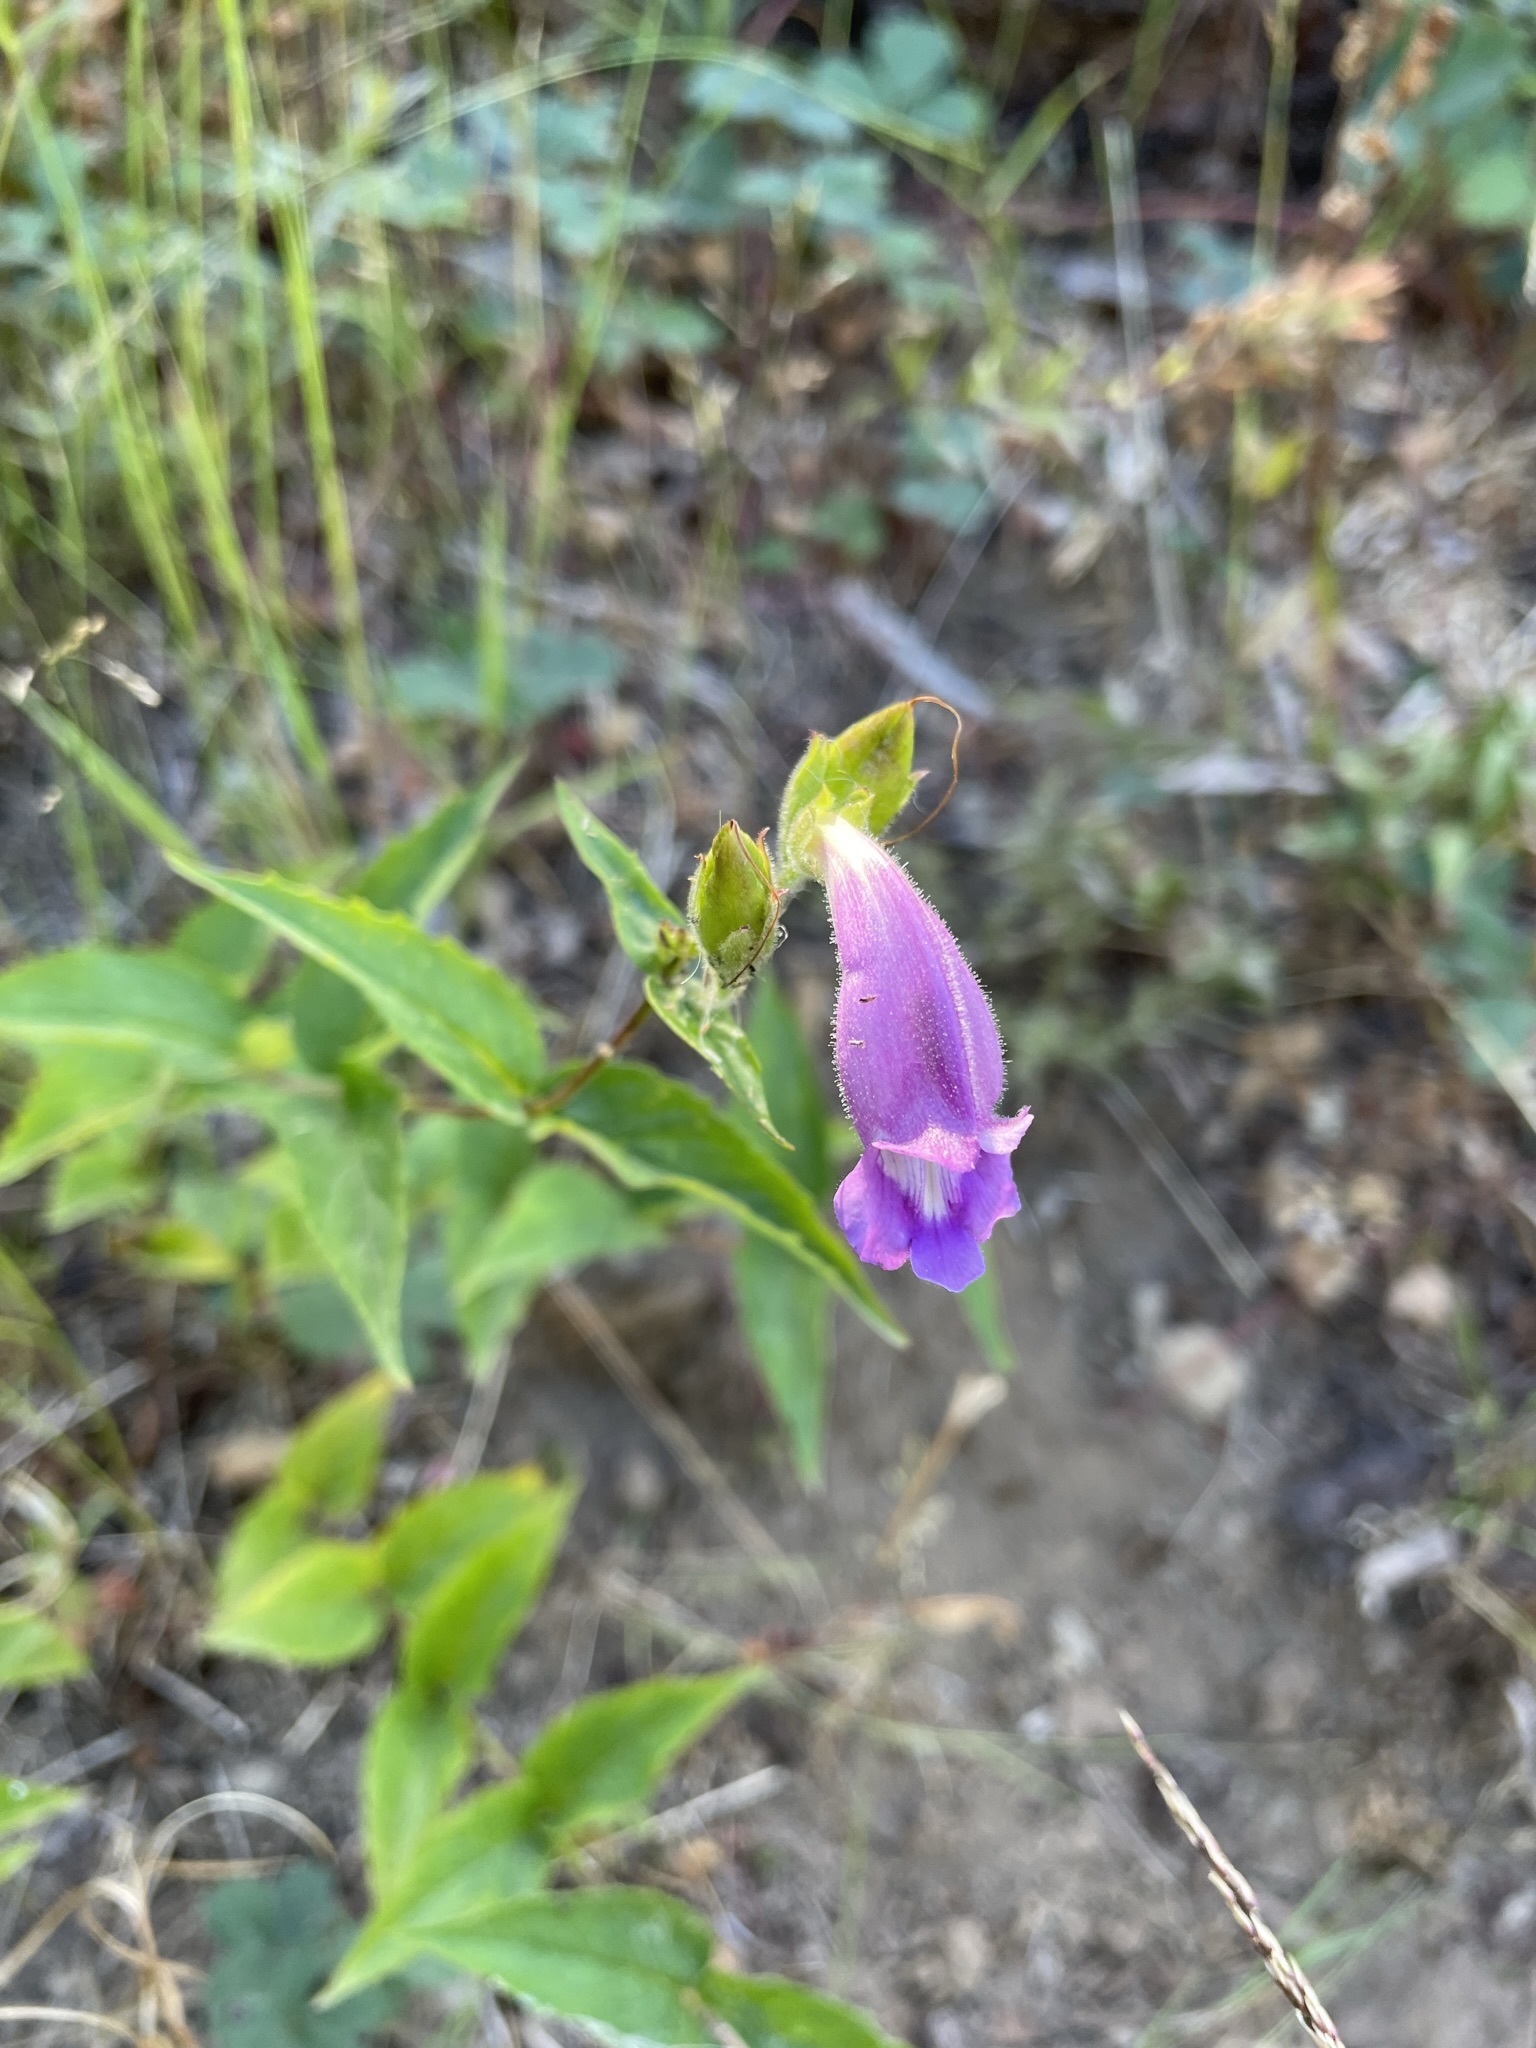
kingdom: Plantae
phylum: Tracheophyta
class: Magnoliopsida
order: Lamiales
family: Plantaginaceae
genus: Nothochelone
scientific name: Nothochelone nemorosa
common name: Woodland beardtongue
